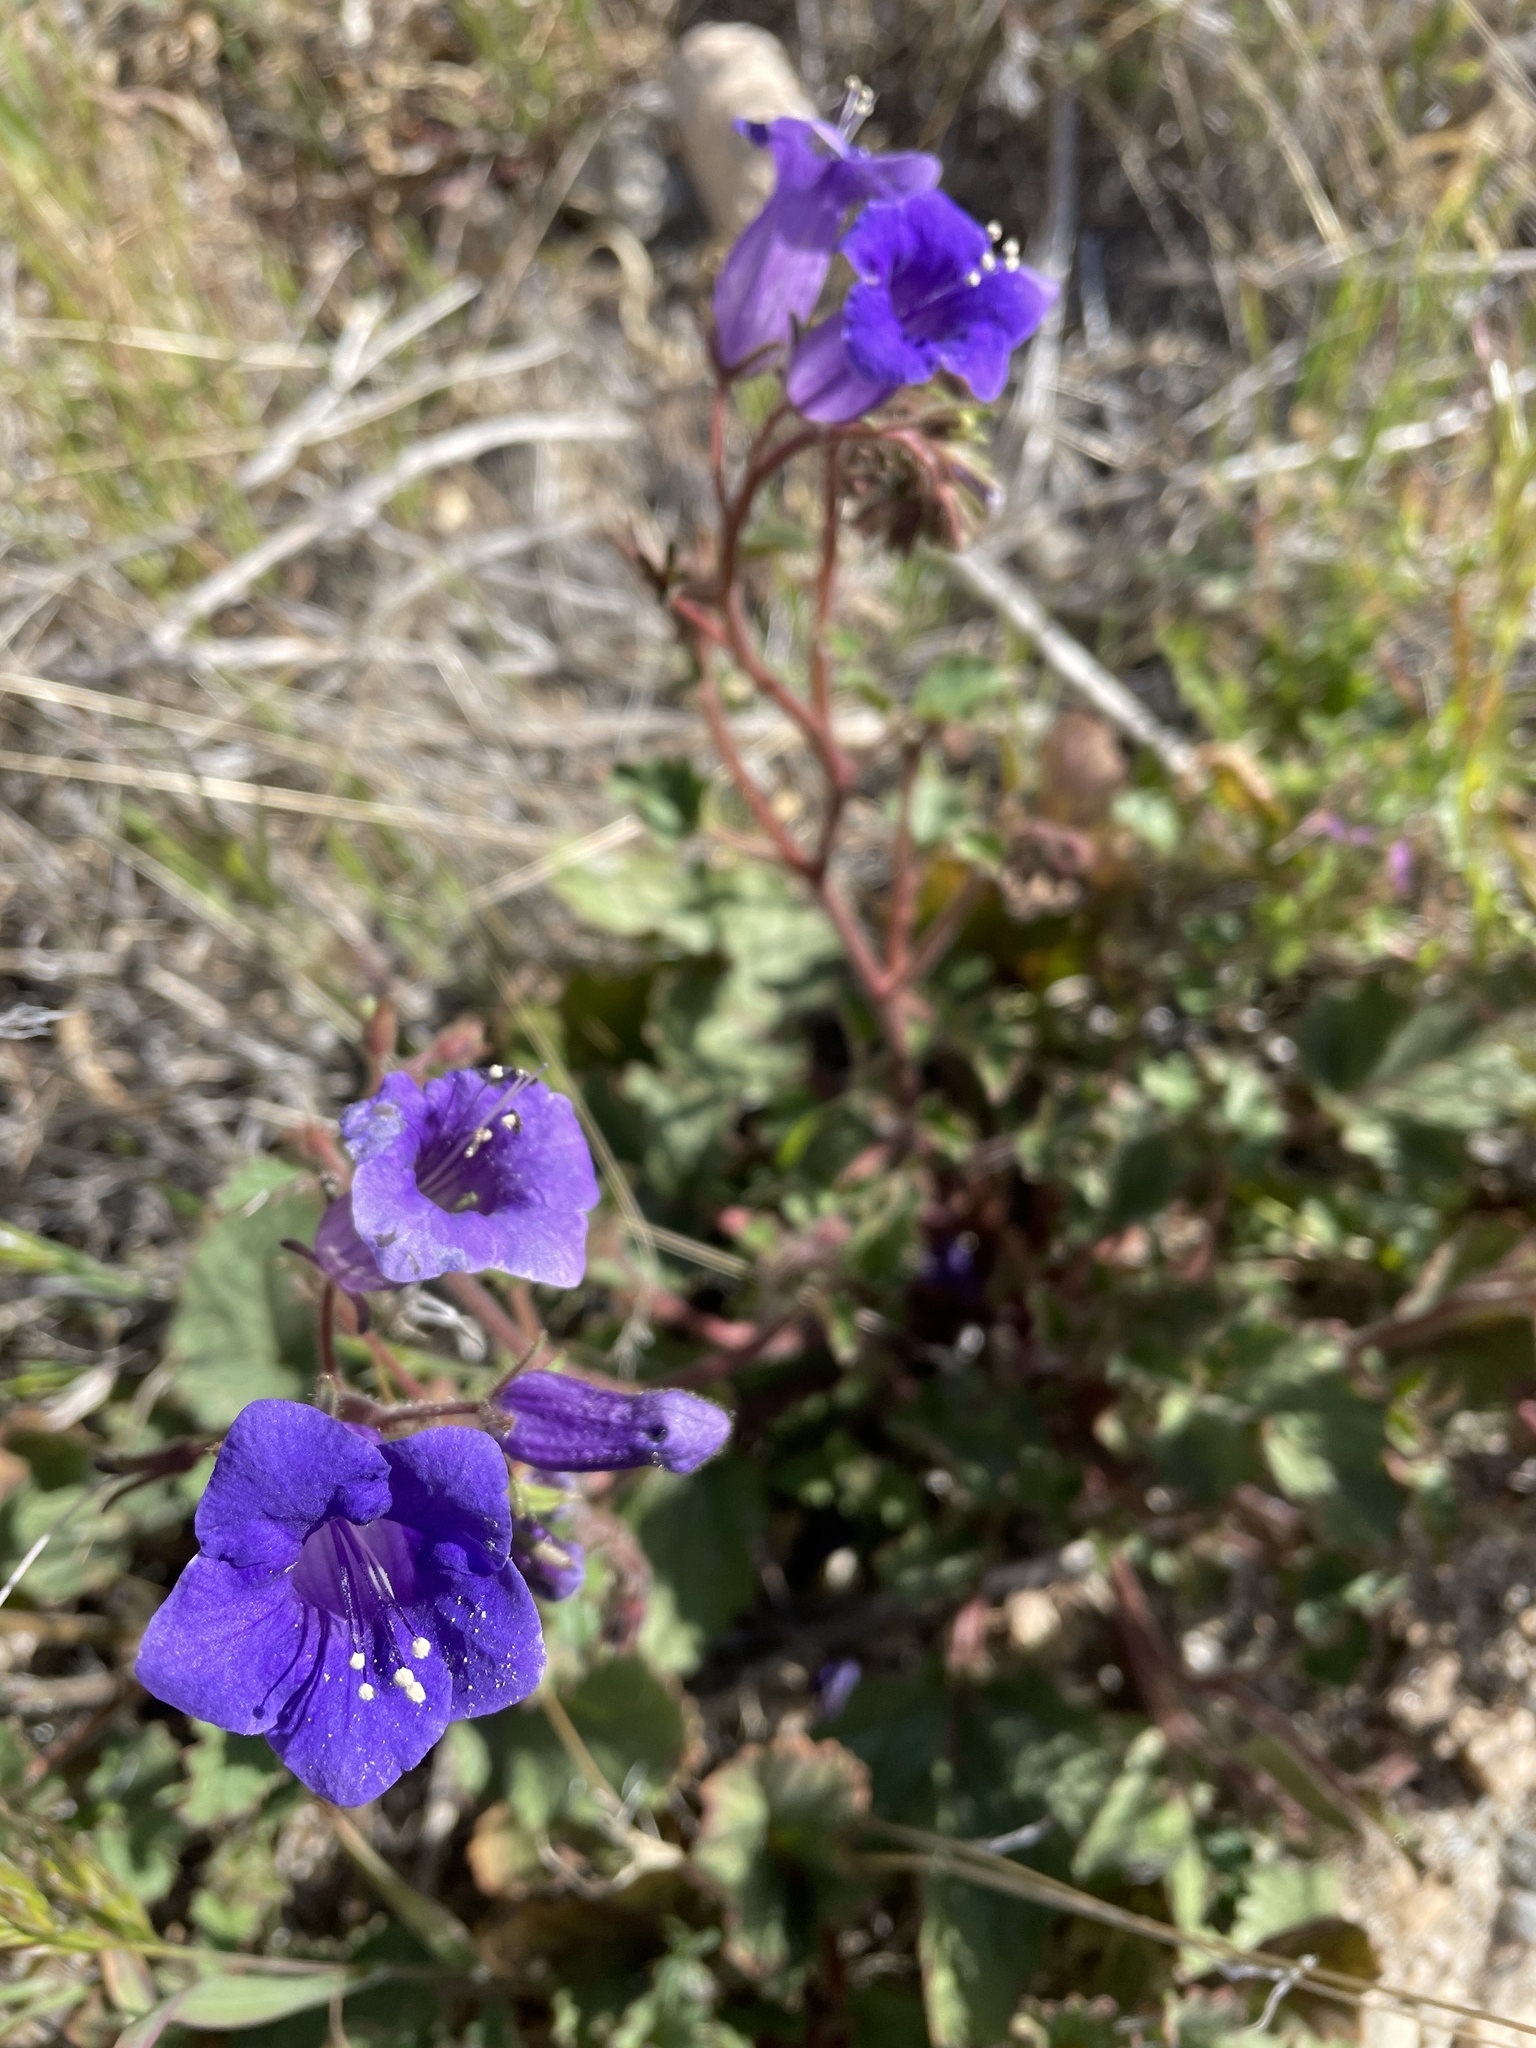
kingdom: Plantae
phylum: Tracheophyta
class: Magnoliopsida
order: Boraginales
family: Hydrophyllaceae
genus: Phacelia
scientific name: Phacelia minor
